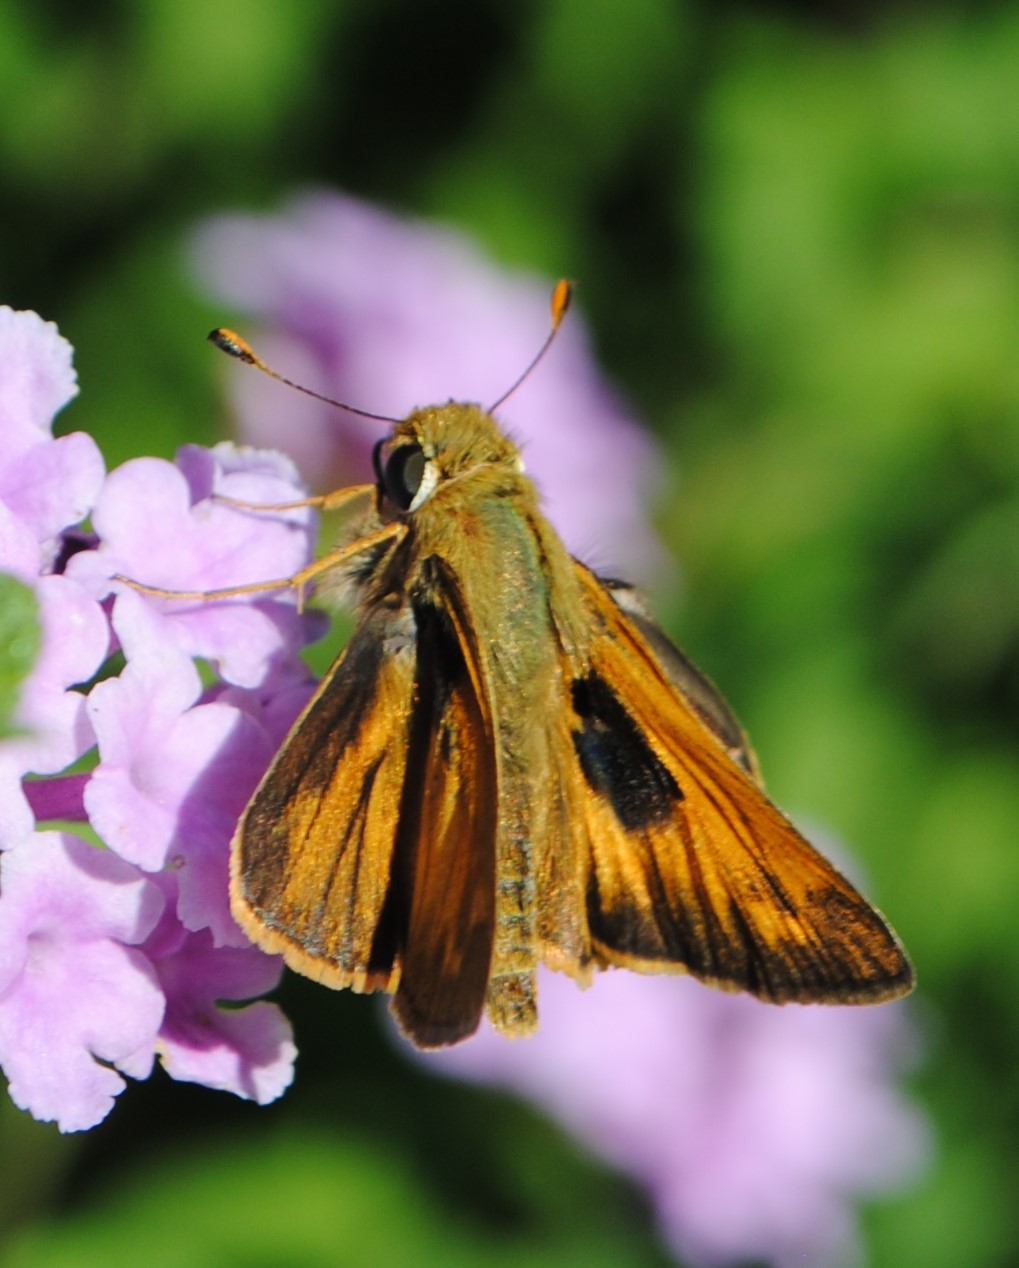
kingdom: Animalia
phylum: Arthropoda
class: Insecta
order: Lepidoptera
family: Hesperiidae
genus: Atalopedes
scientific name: Atalopedes
